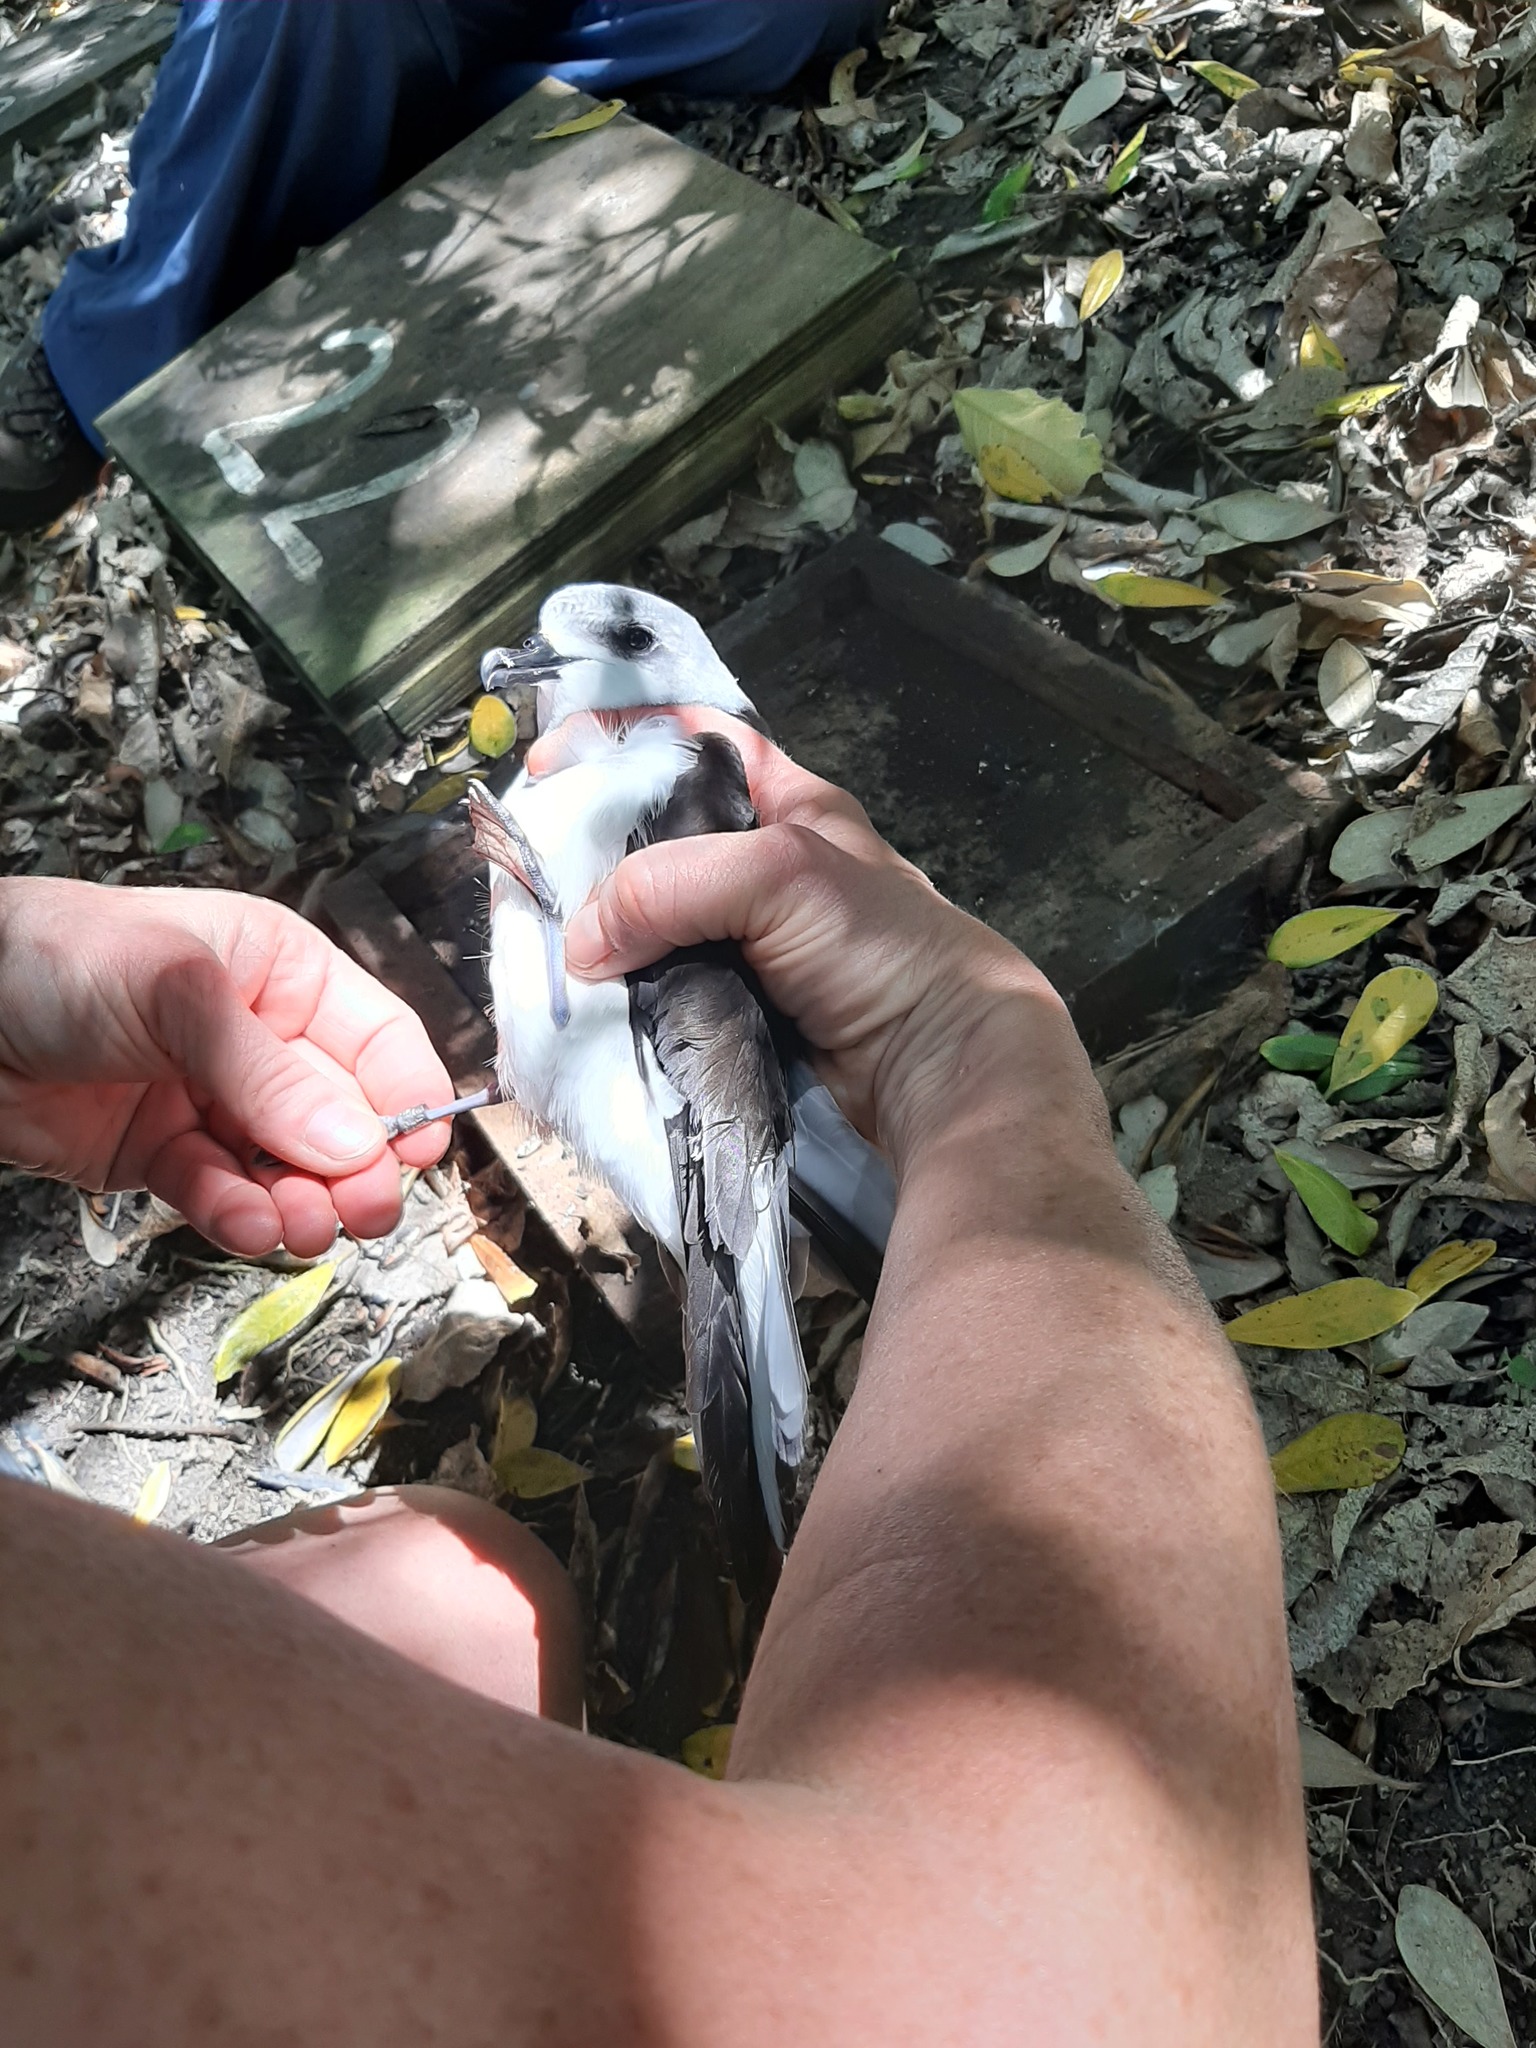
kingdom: Animalia
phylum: Chordata
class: Aves
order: Procellariiformes
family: Procellariidae
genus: Pterodroma
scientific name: Pterodroma pycrofti
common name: Pycroft's petrel
